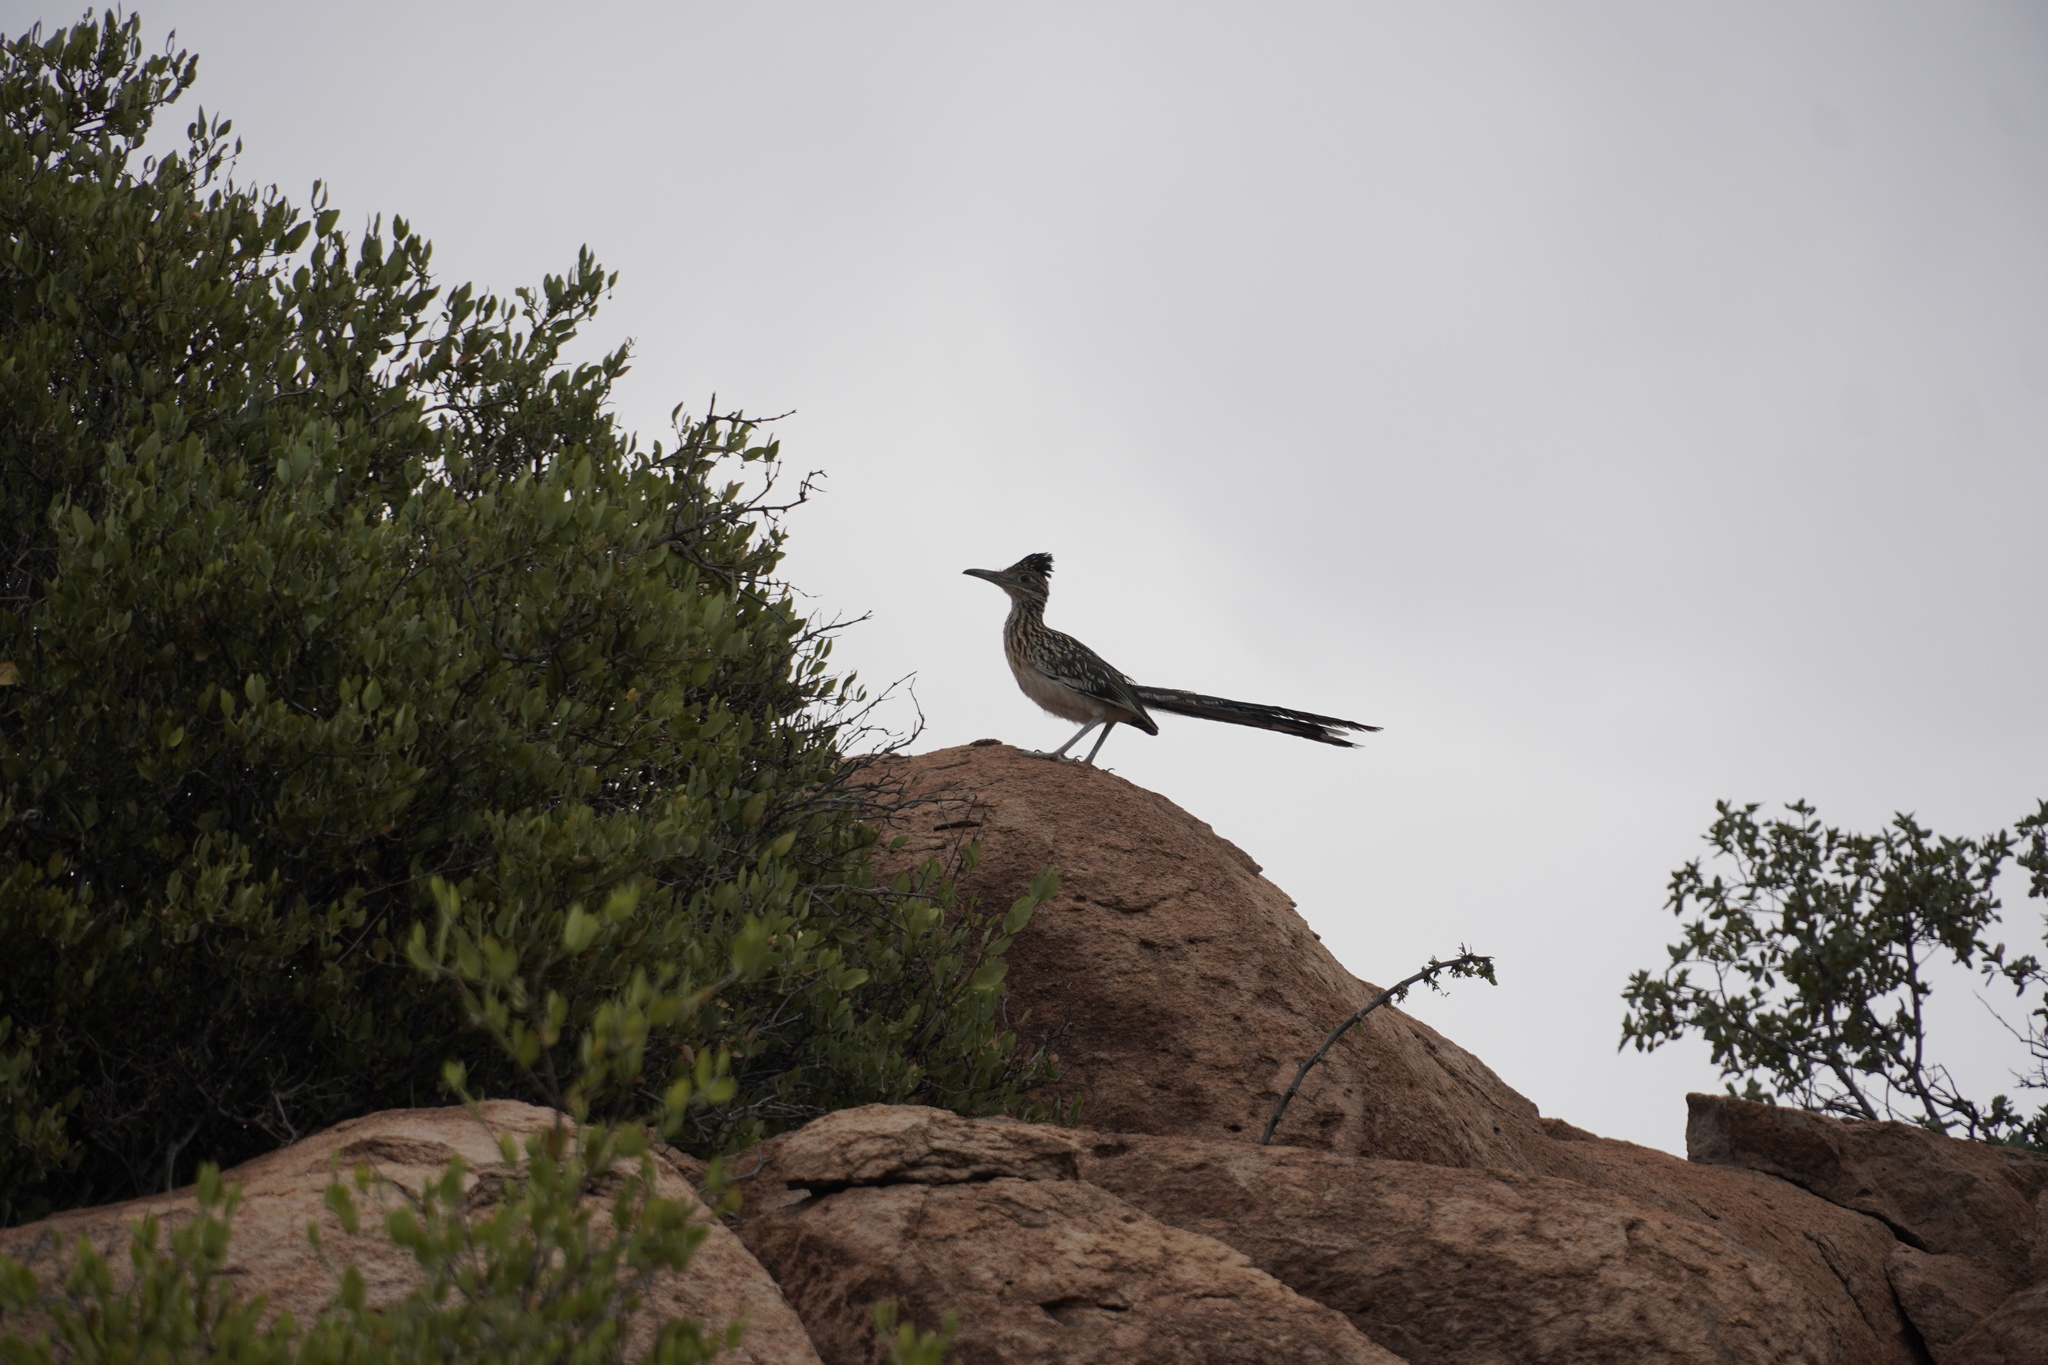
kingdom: Animalia
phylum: Chordata
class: Aves
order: Cuculiformes
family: Cuculidae
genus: Geococcyx
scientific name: Geococcyx californianus
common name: Greater roadrunner
